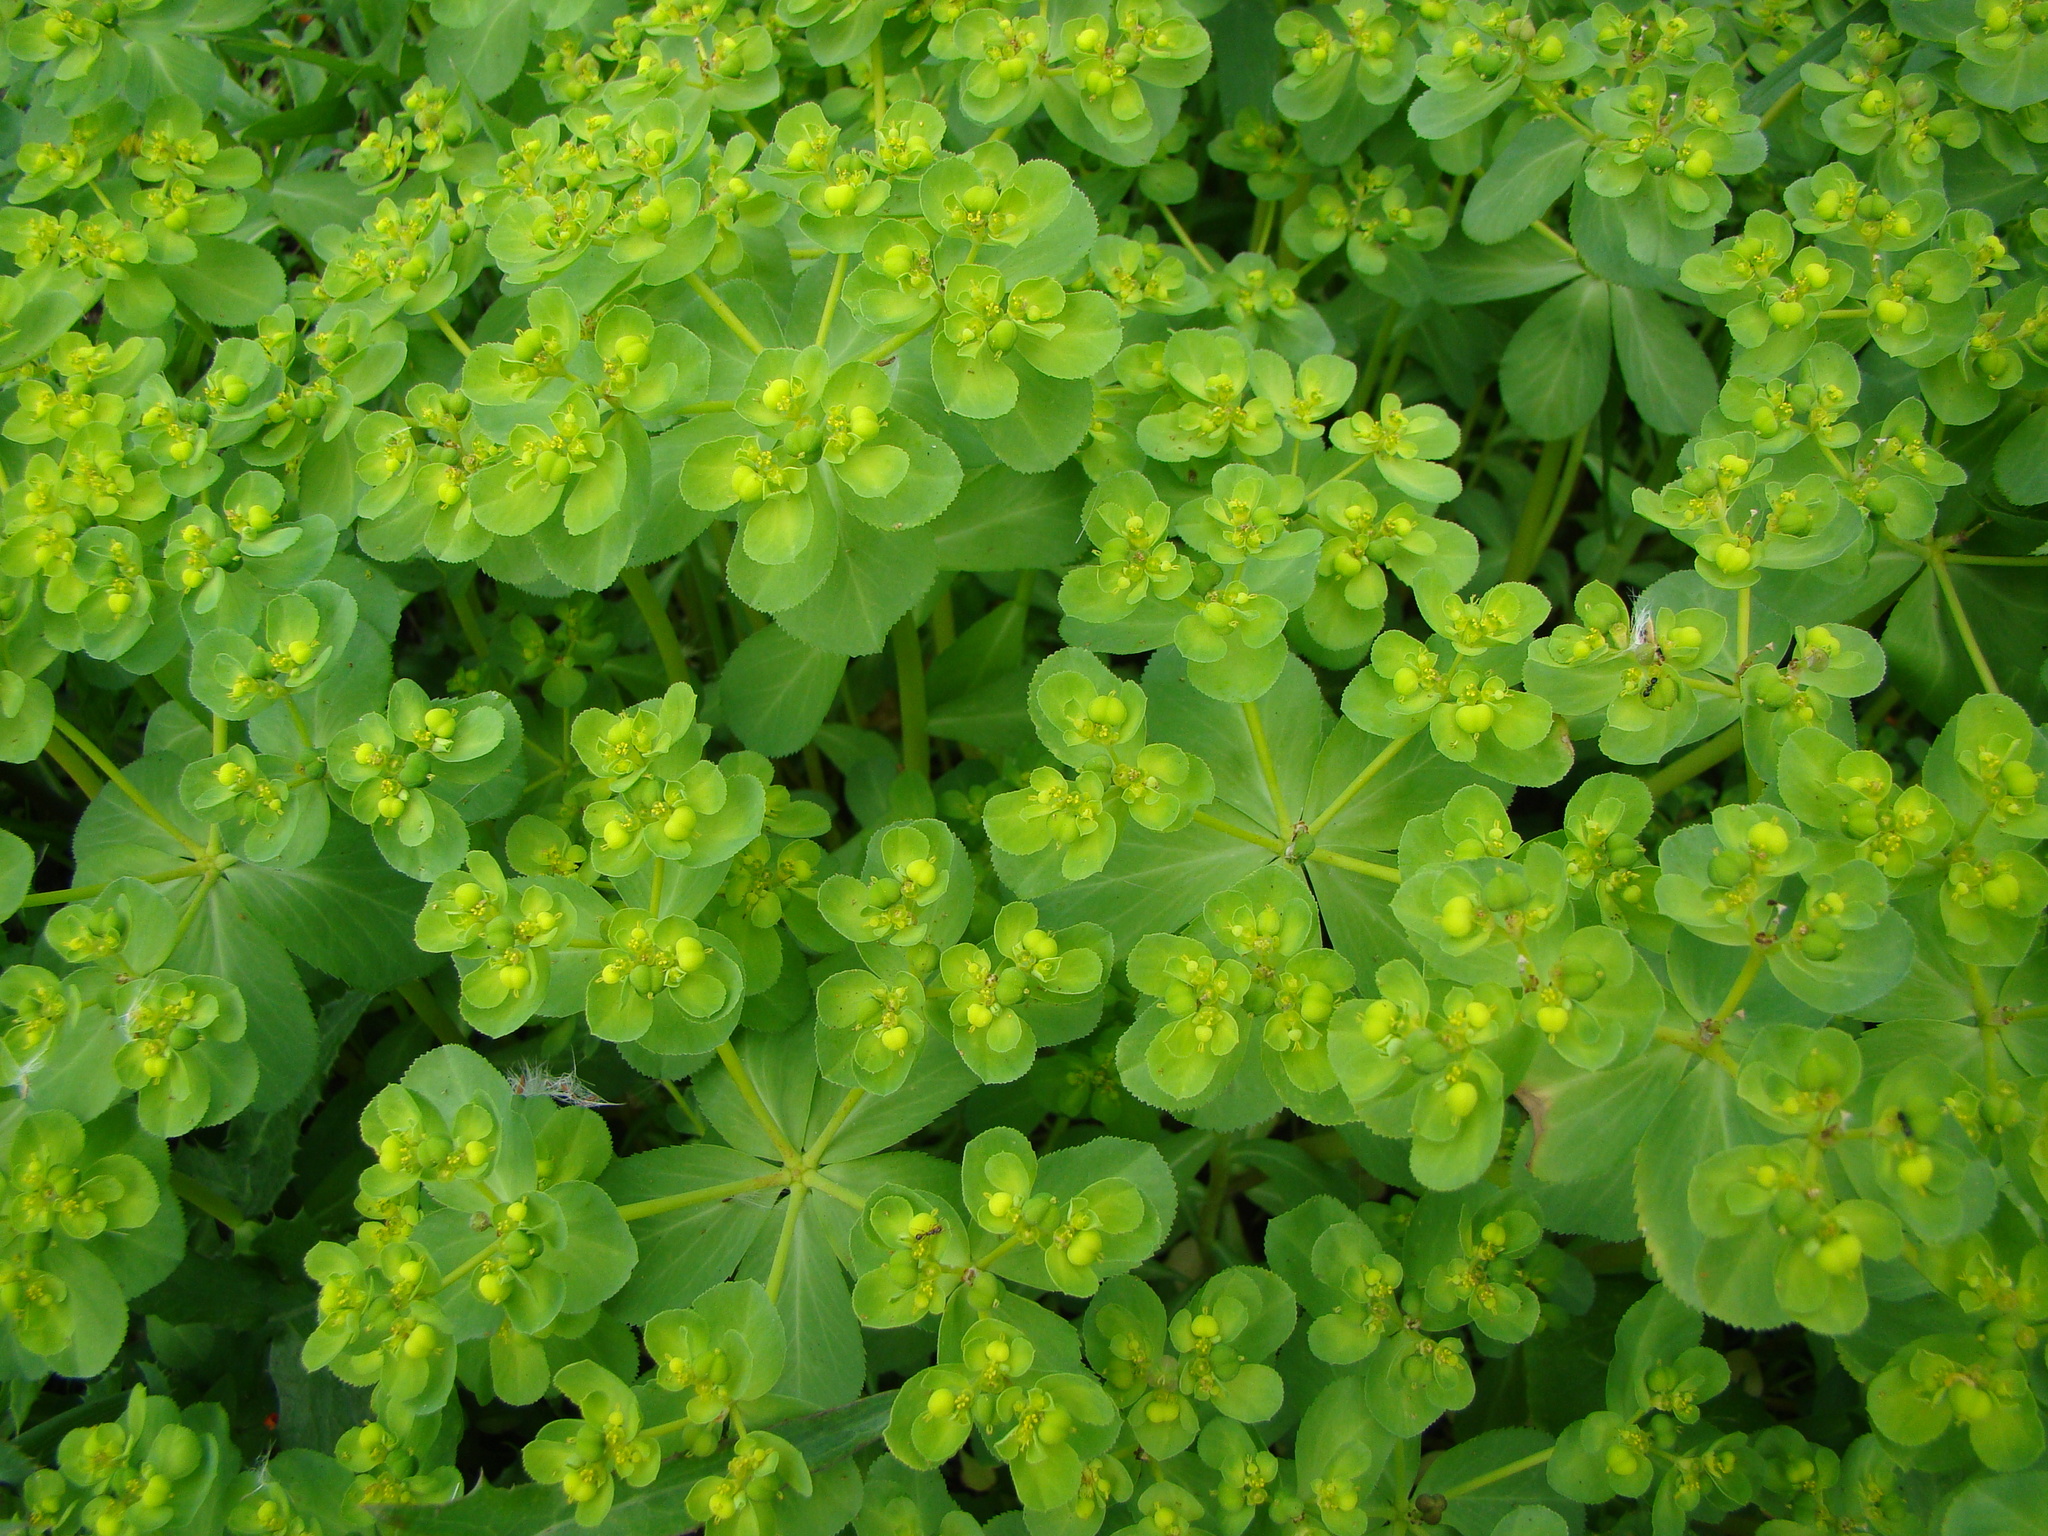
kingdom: Plantae
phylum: Tracheophyta
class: Magnoliopsida
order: Malpighiales
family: Euphorbiaceae
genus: Euphorbia
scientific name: Euphorbia helioscopia
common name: Sun spurge
